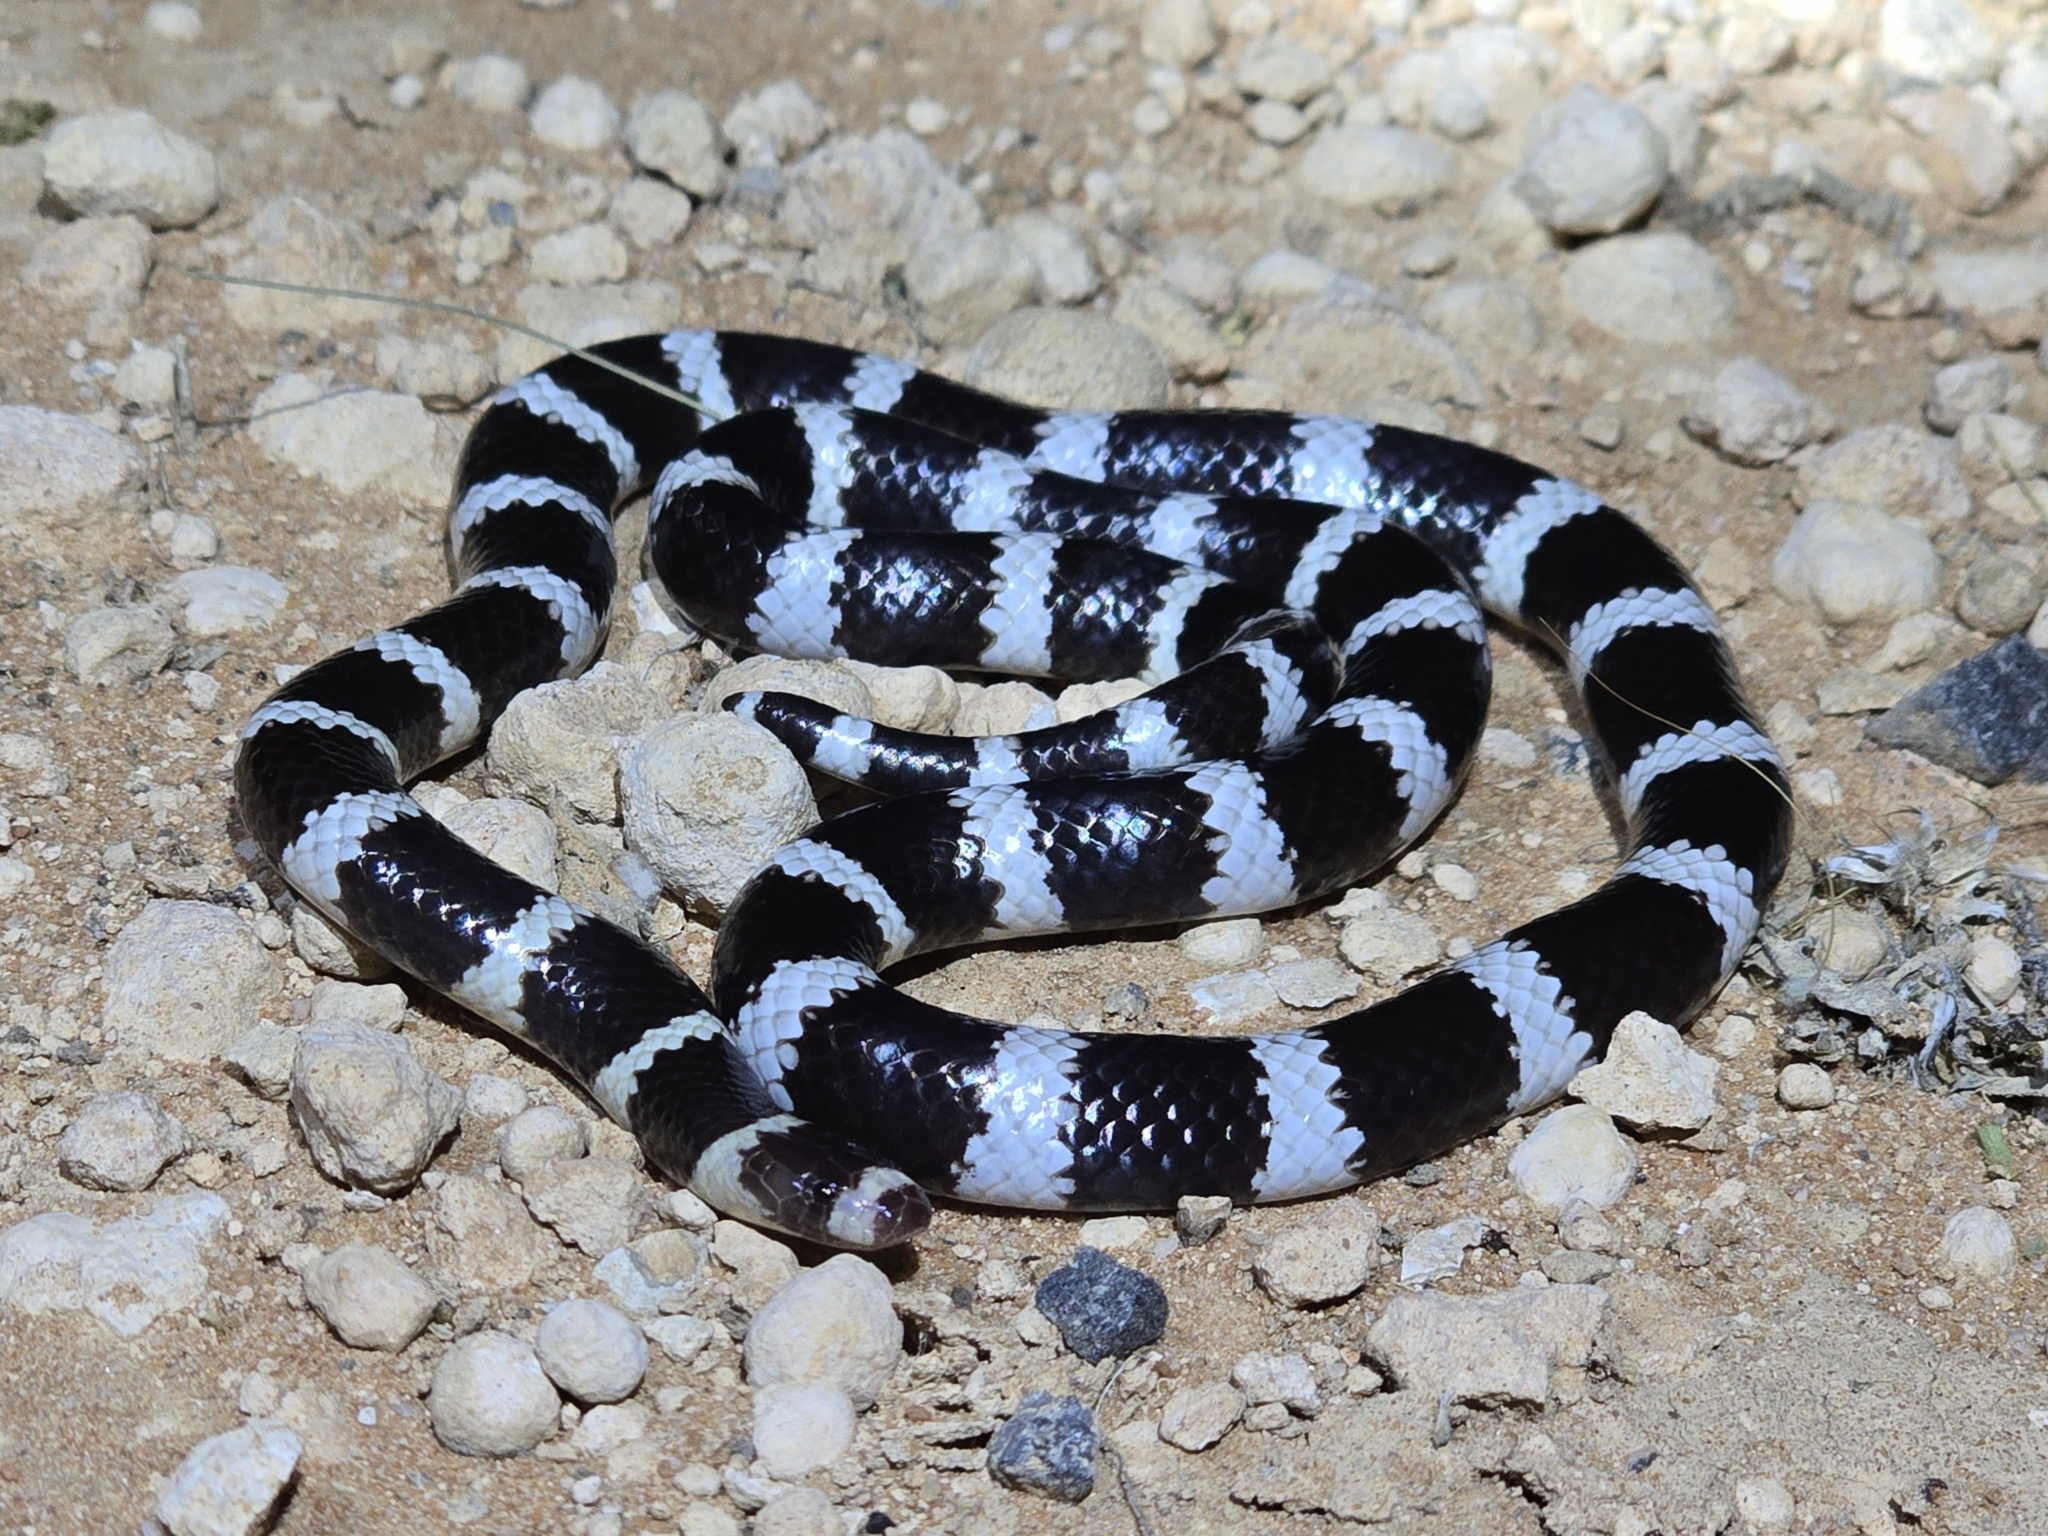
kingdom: Animalia
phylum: Chordata
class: Squamata
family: Elapidae
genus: Vermicella
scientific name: Vermicella annulata
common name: Bandy bandy
